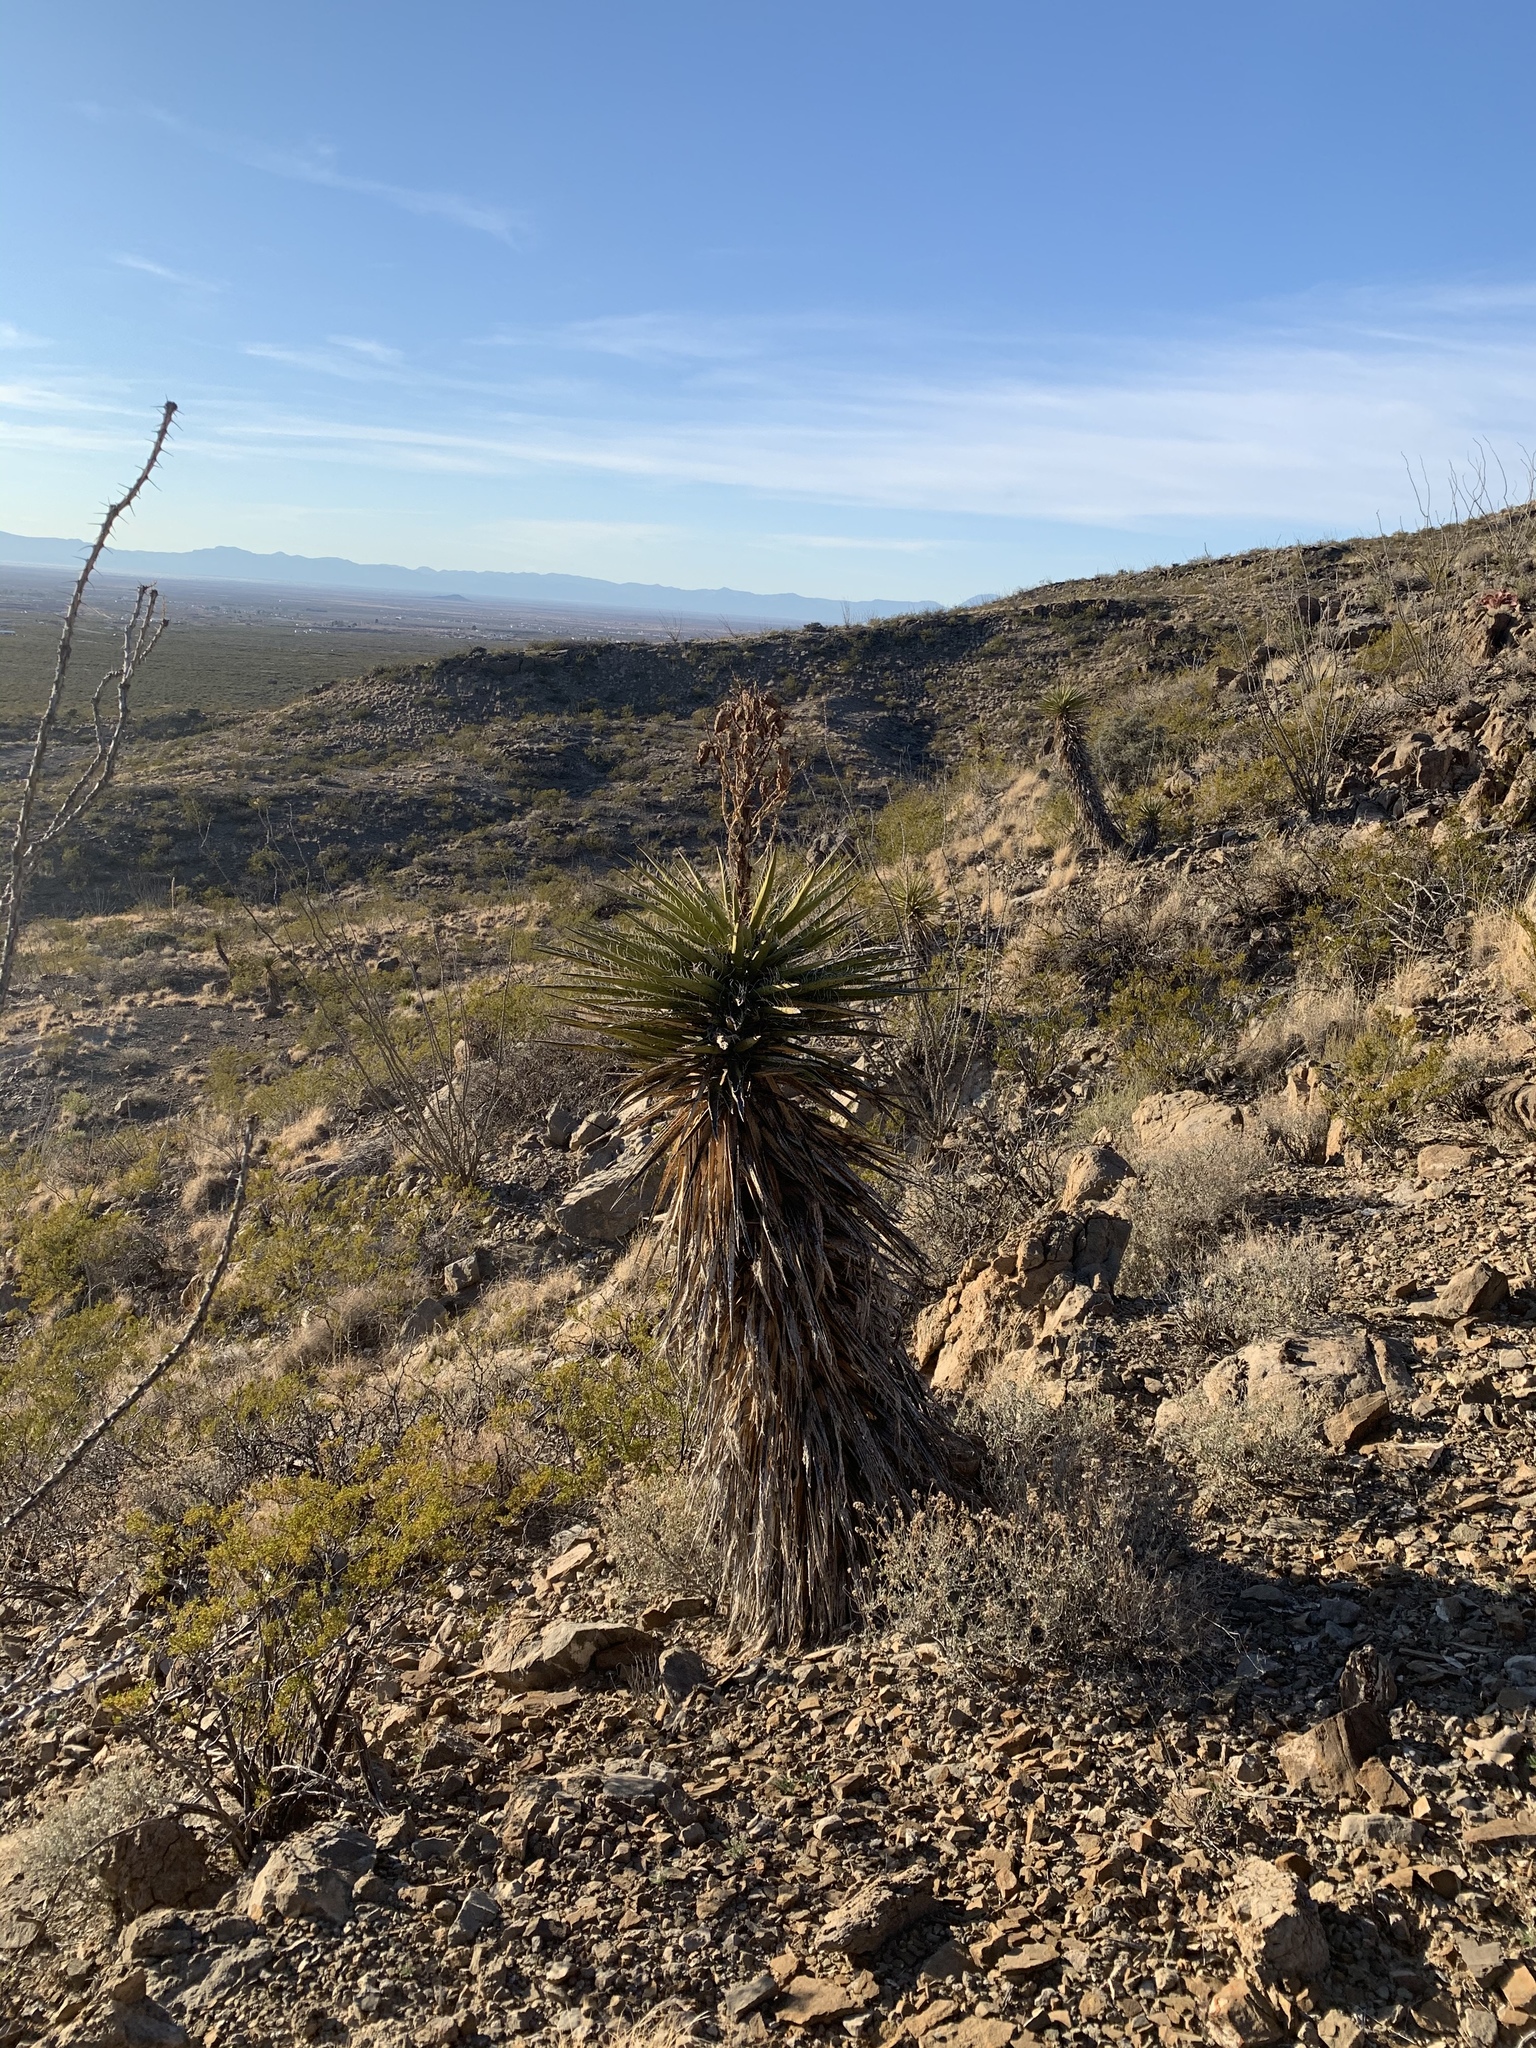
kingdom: Plantae
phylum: Tracheophyta
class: Liliopsida
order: Asparagales
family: Asparagaceae
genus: Yucca
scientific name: Yucca treculiana
